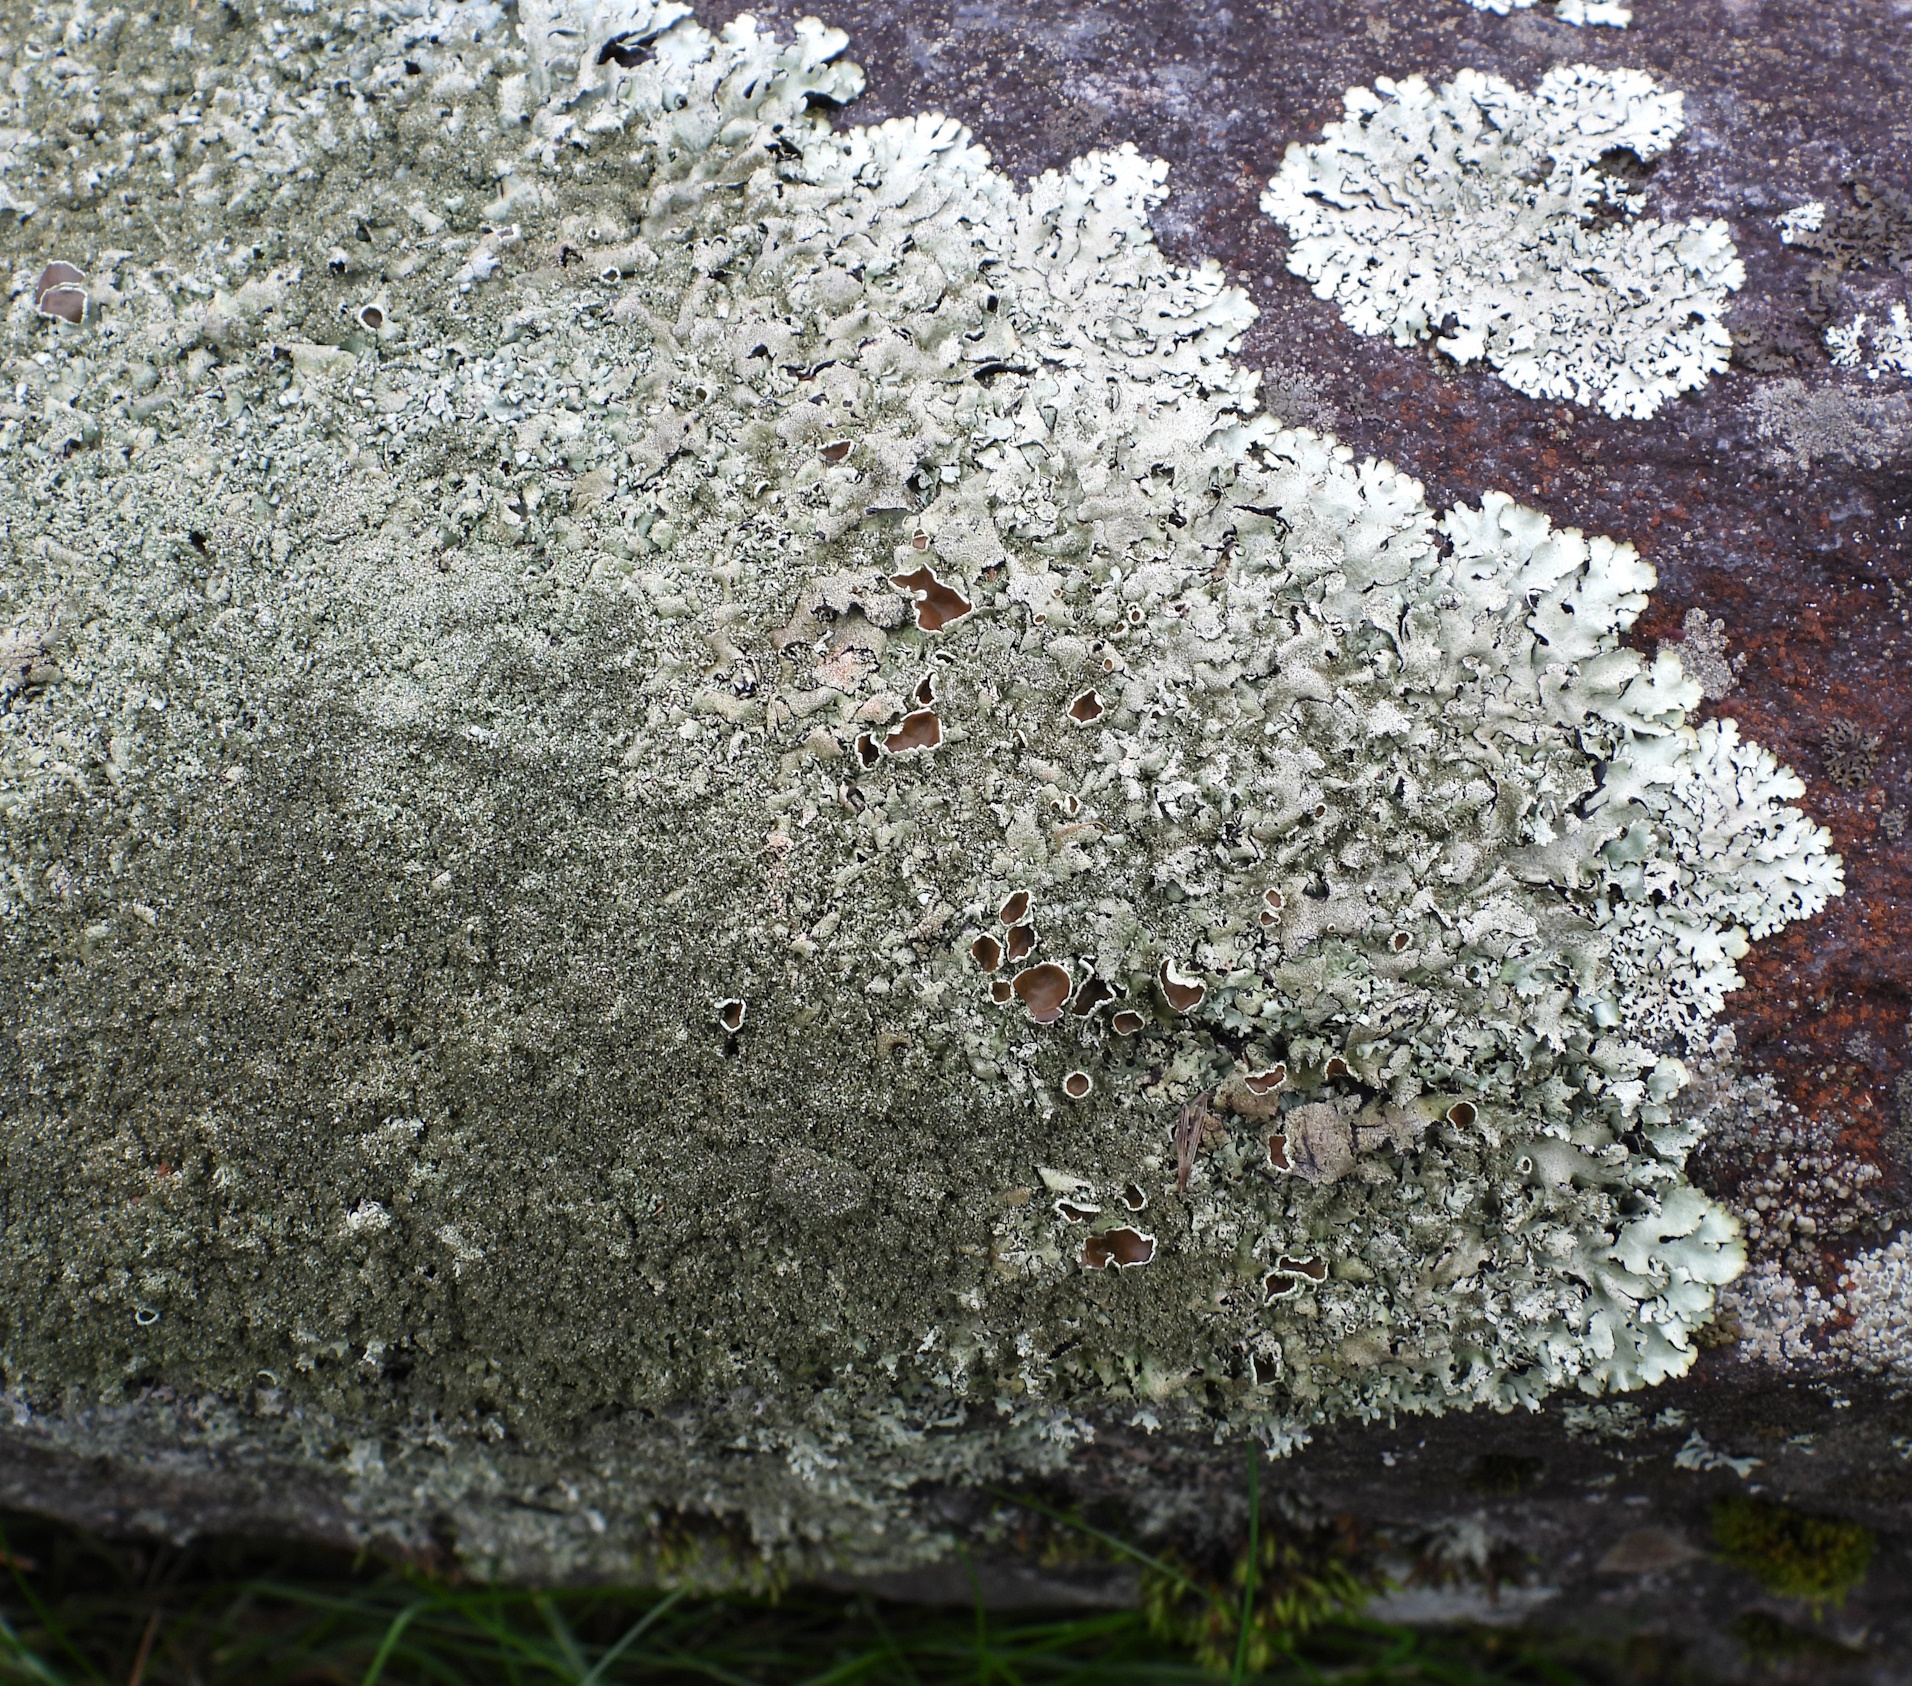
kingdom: Fungi
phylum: Ascomycota
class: Lecanoromycetes
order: Lecanorales
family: Parmeliaceae
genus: Xanthoparmelia
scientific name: Xanthoparmelia conspersa
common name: Peppered rock shield
